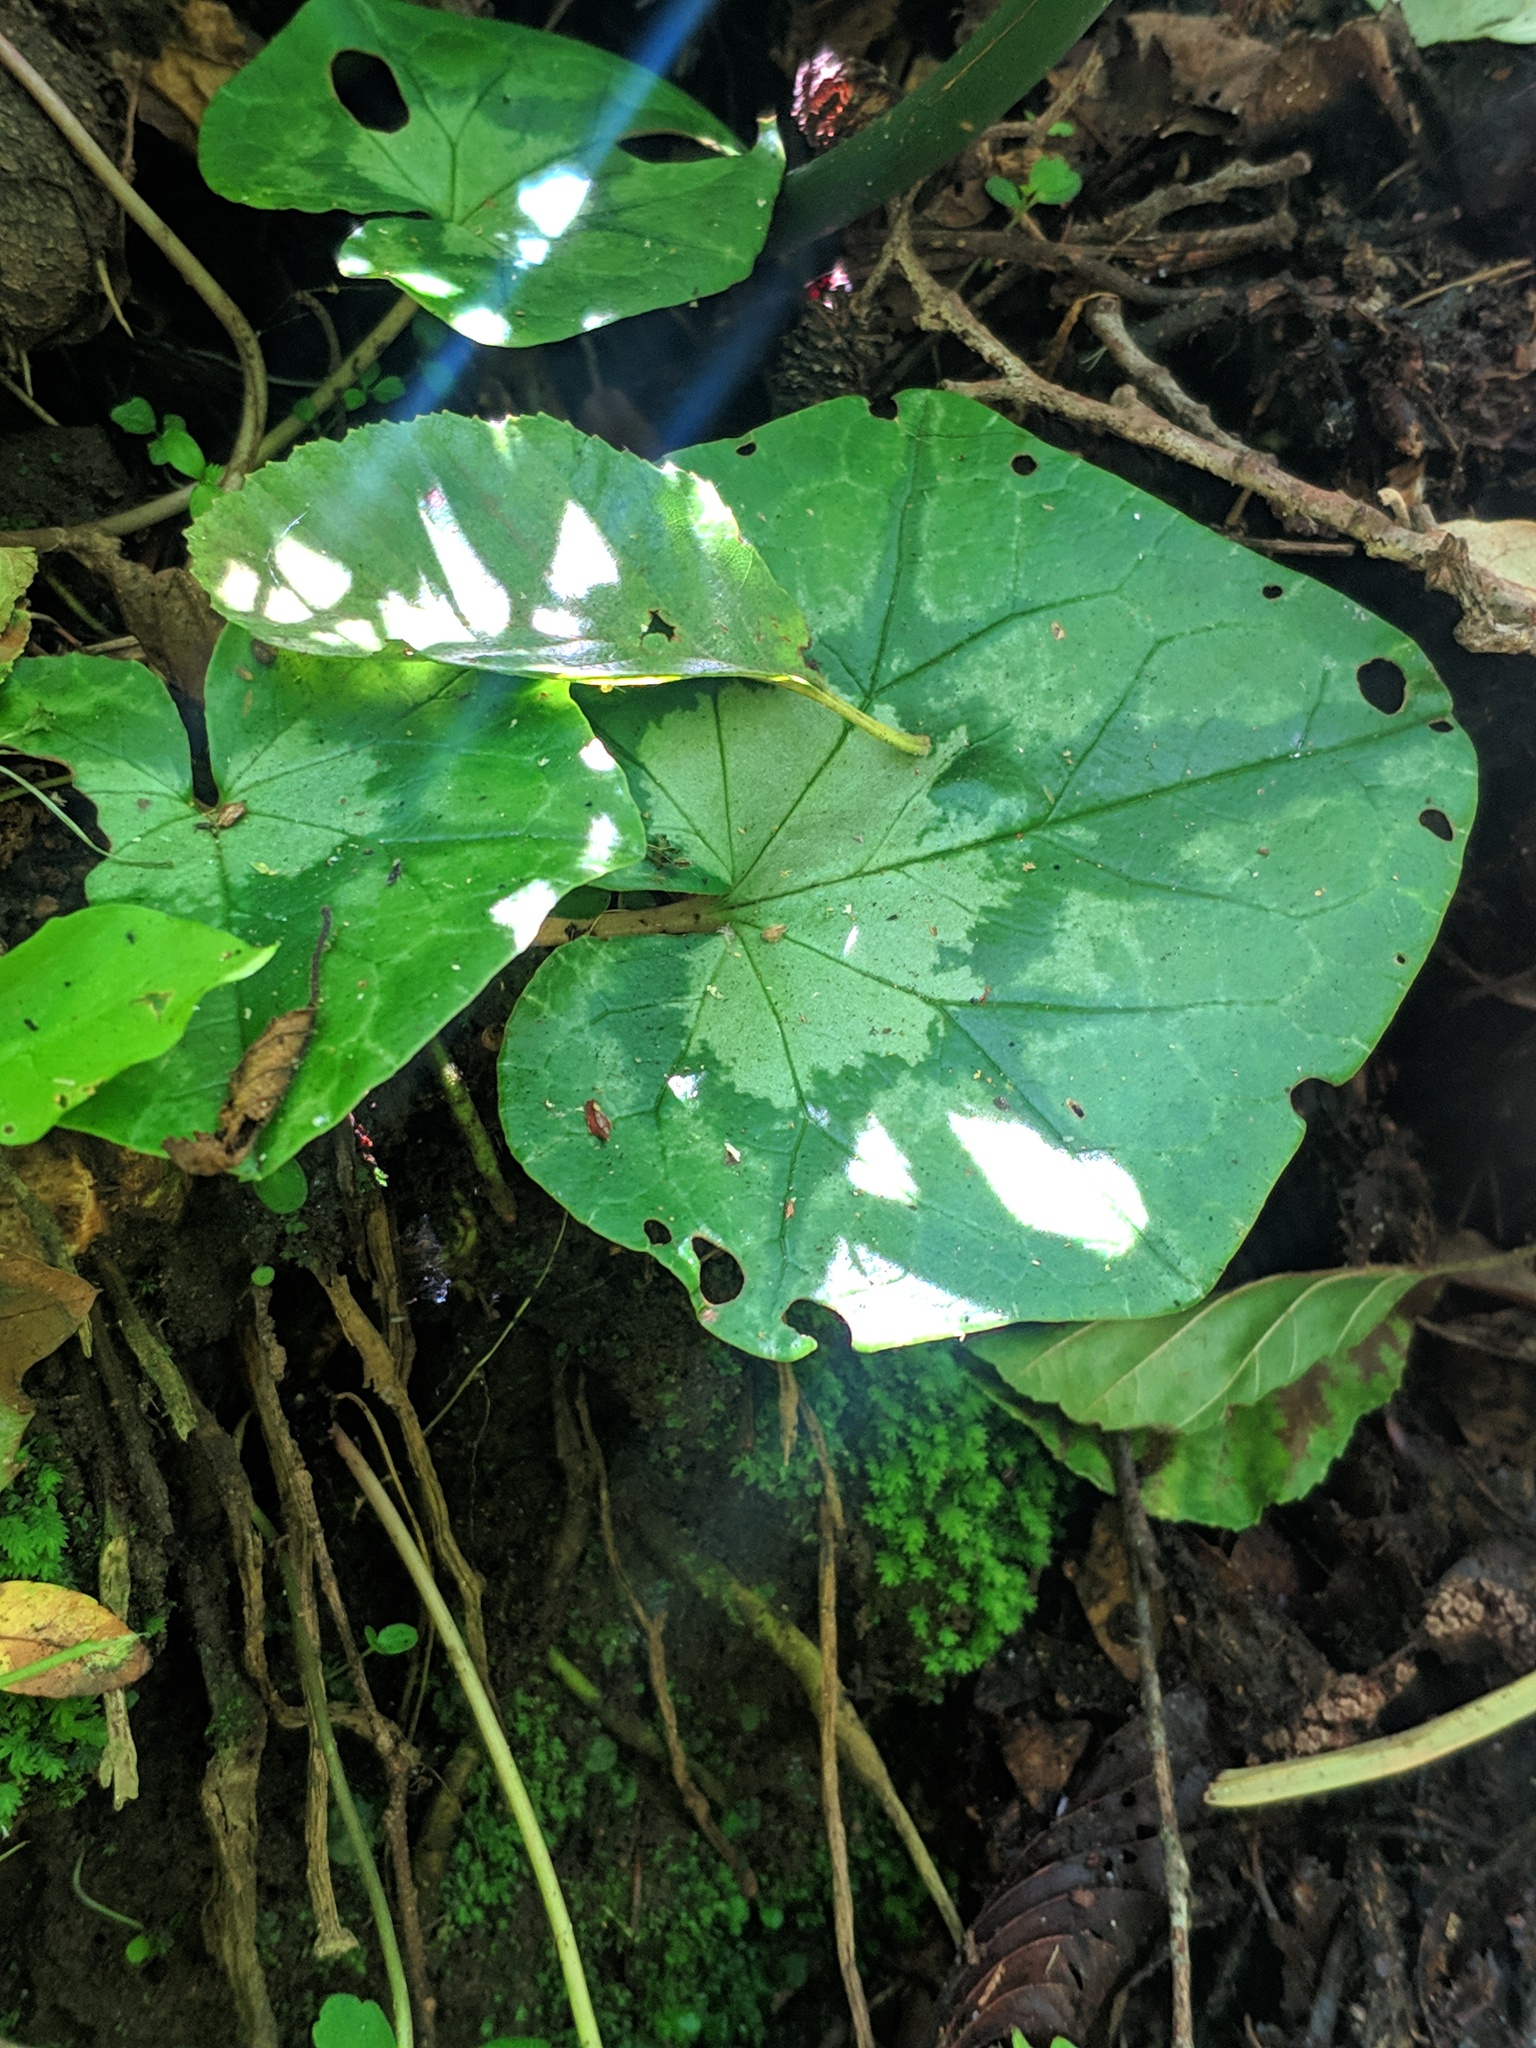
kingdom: Plantae
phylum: Tracheophyta
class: Magnoliopsida
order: Ericales
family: Primulaceae
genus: Cyclamen
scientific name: Cyclamen repandum
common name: Spring sowbread
